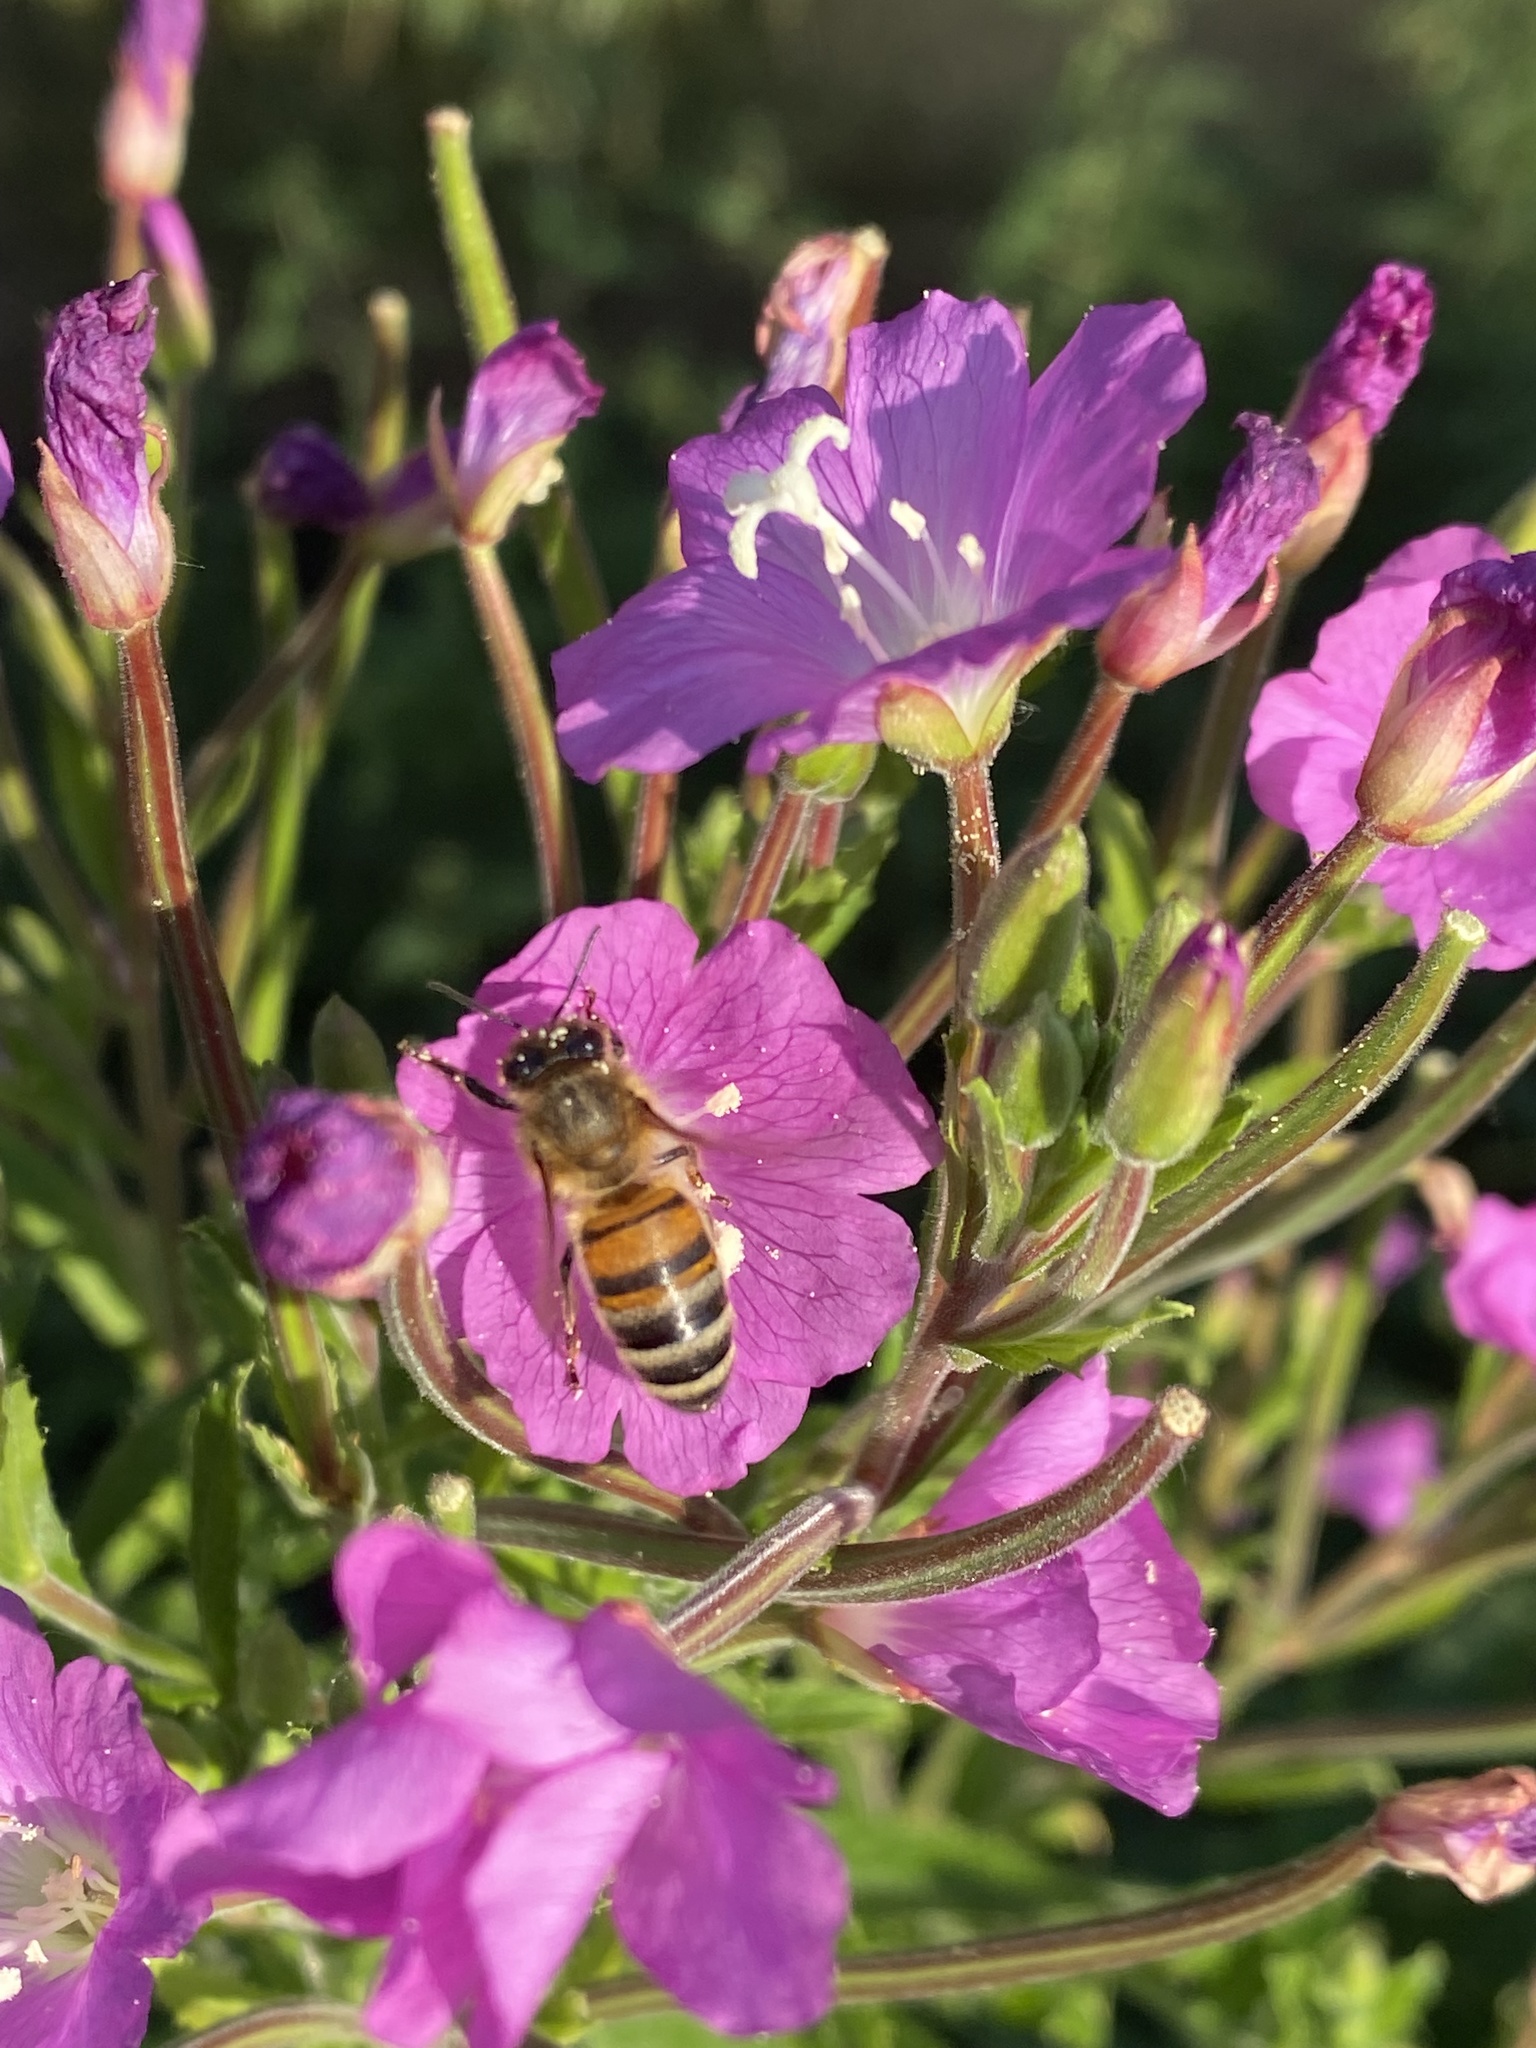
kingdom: Animalia
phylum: Arthropoda
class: Insecta
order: Hymenoptera
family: Apidae
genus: Apis
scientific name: Apis mellifera
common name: Honey bee
